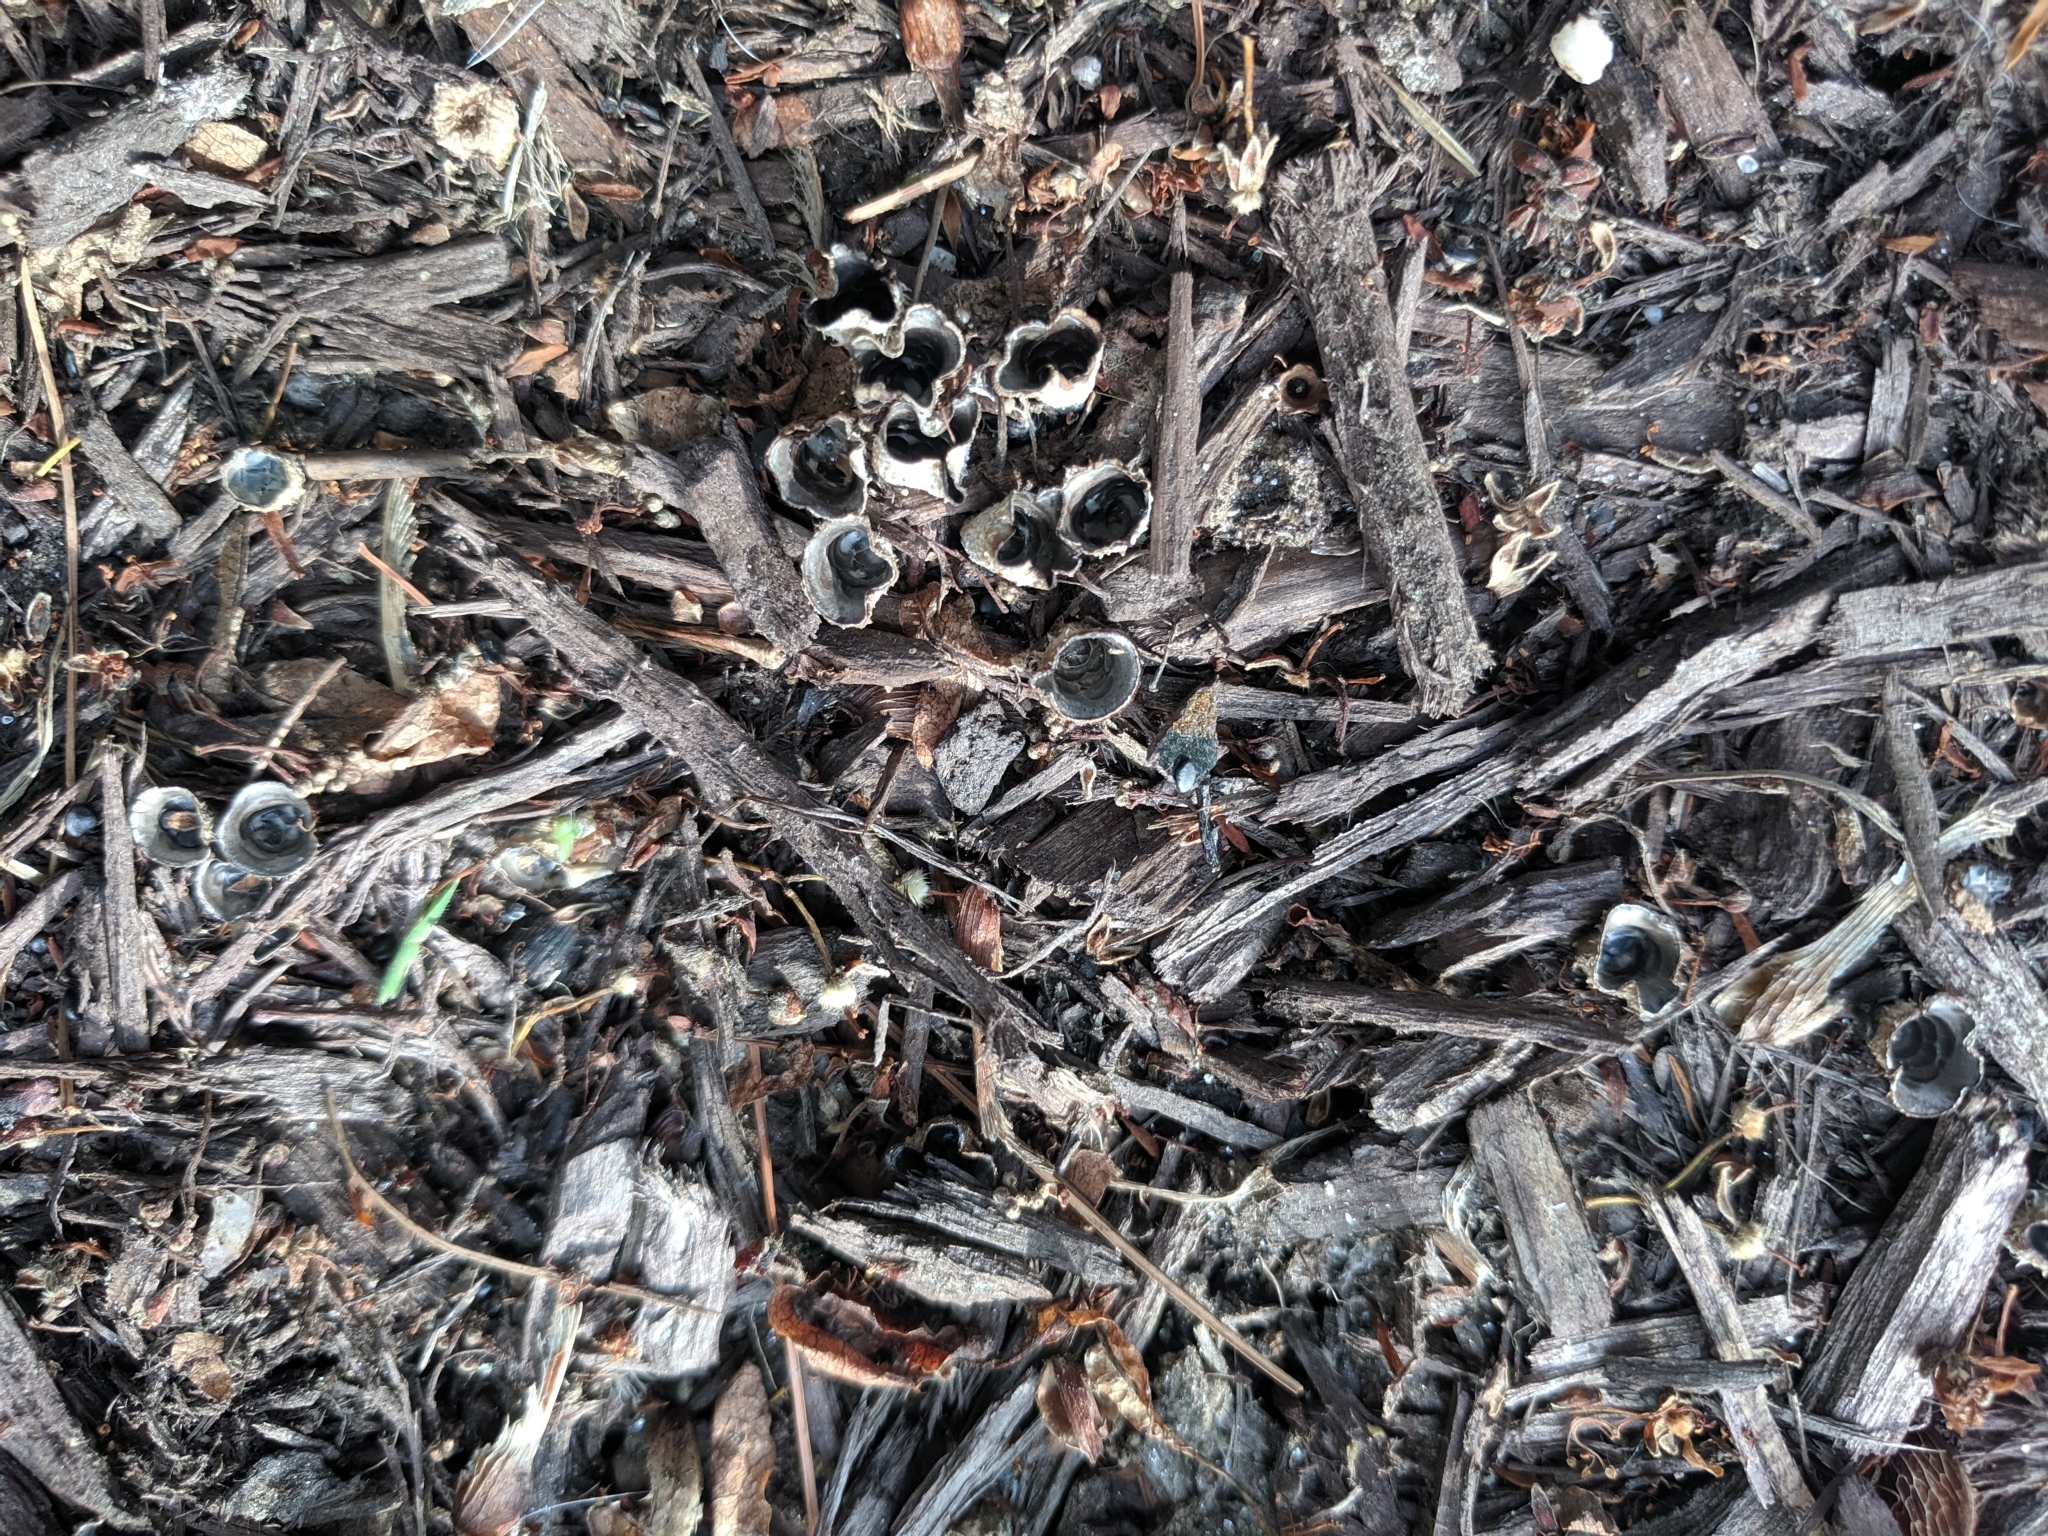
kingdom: Fungi
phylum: Basidiomycota
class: Agaricomycetes
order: Agaricales
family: Agaricaceae
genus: Cyathus
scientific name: Cyathus stercoreus
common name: Dung bird's nest
